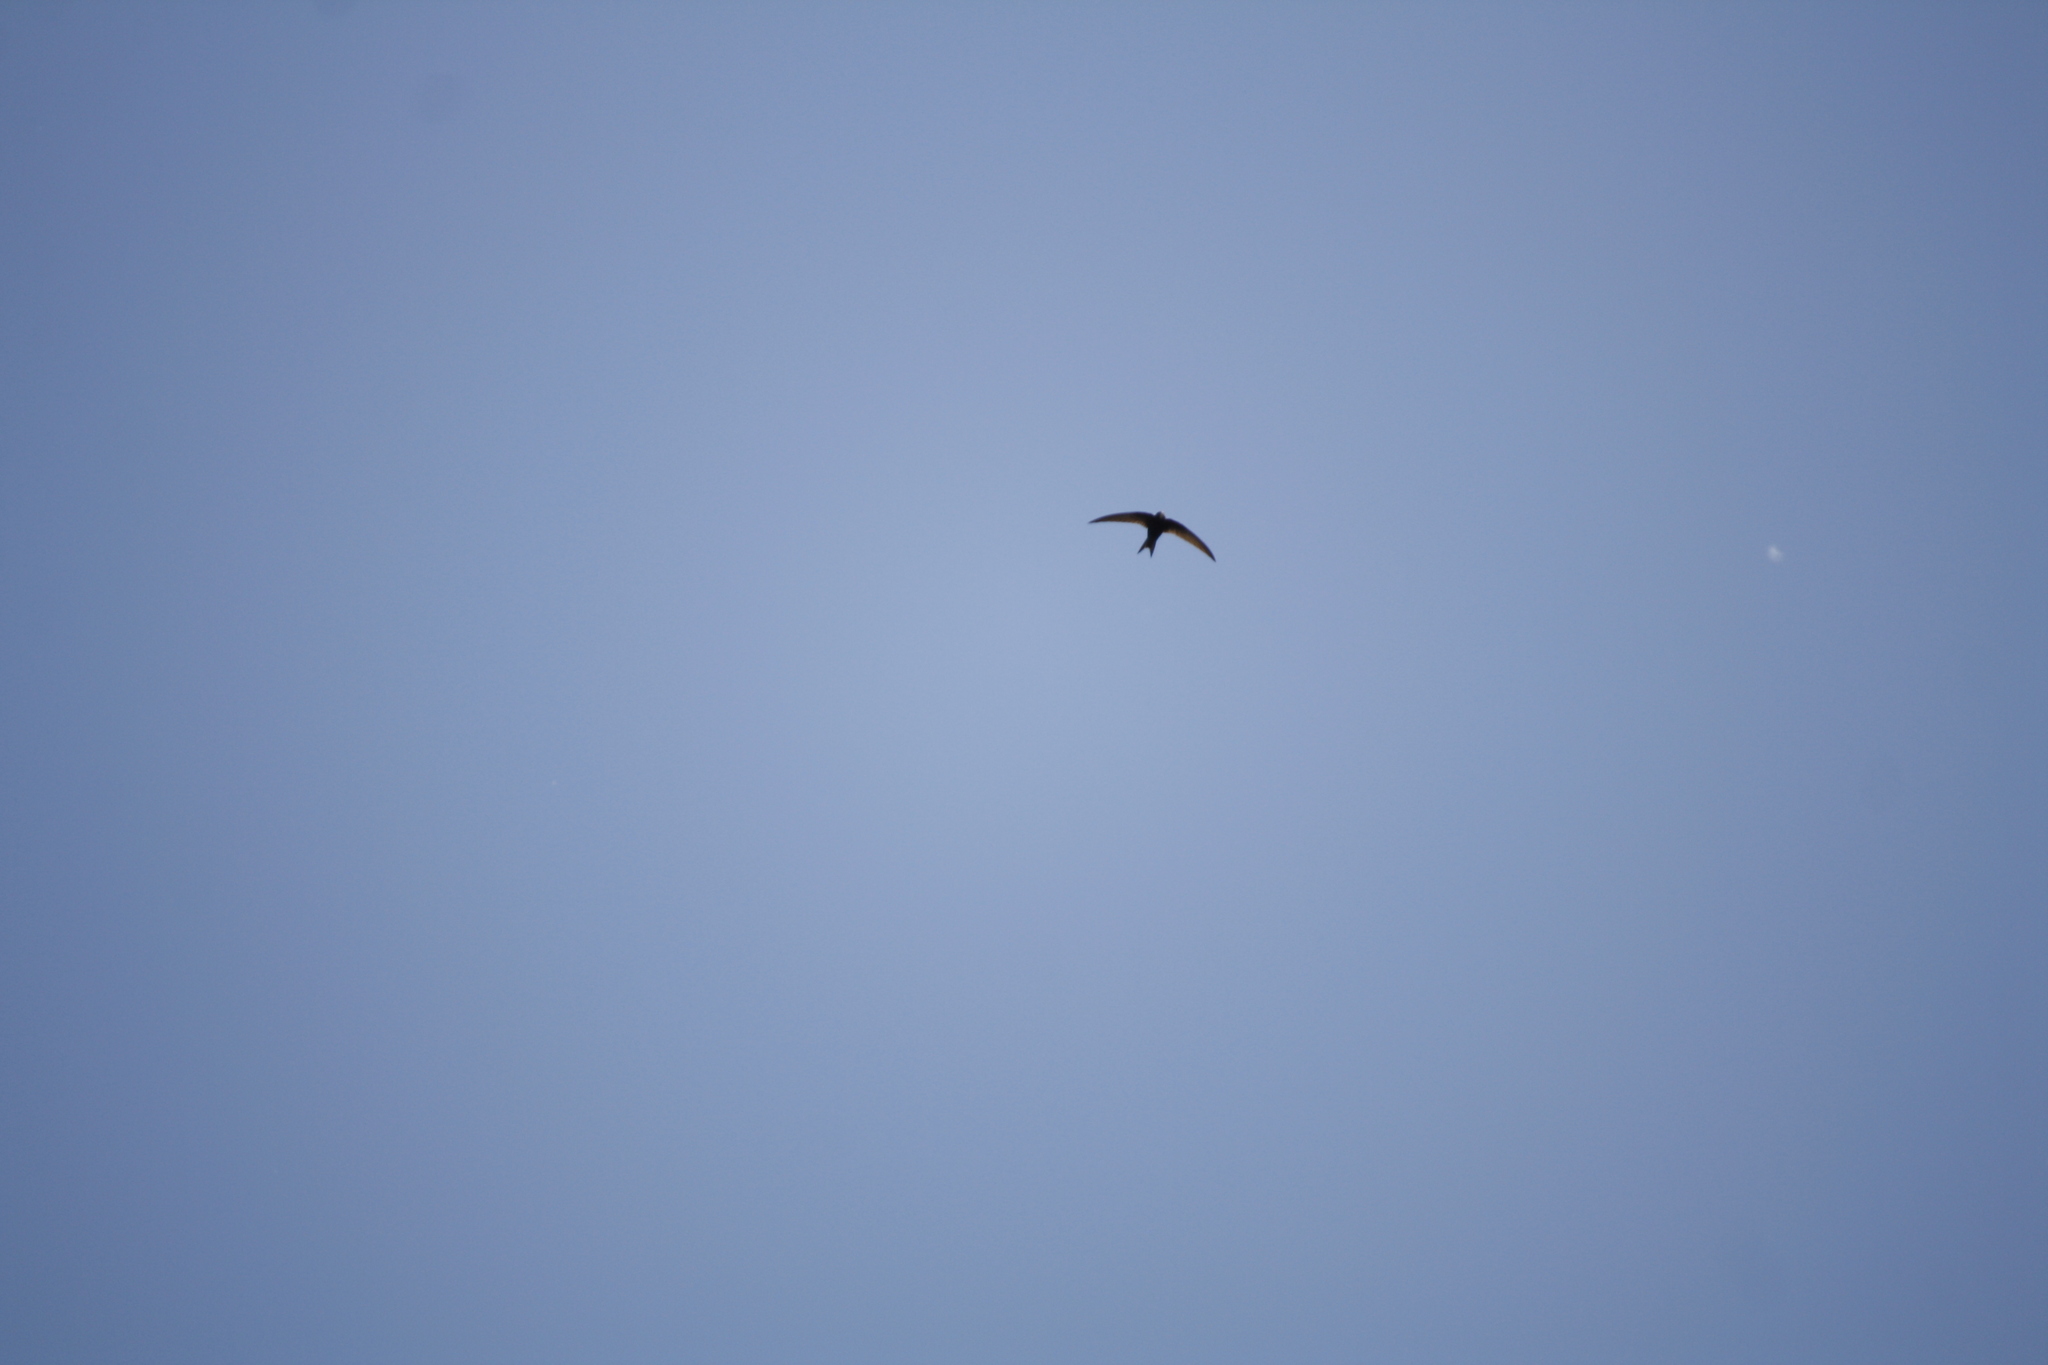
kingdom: Animalia
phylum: Chordata
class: Aves
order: Apodiformes
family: Apodidae
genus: Apus
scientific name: Apus apus
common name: Common swift
